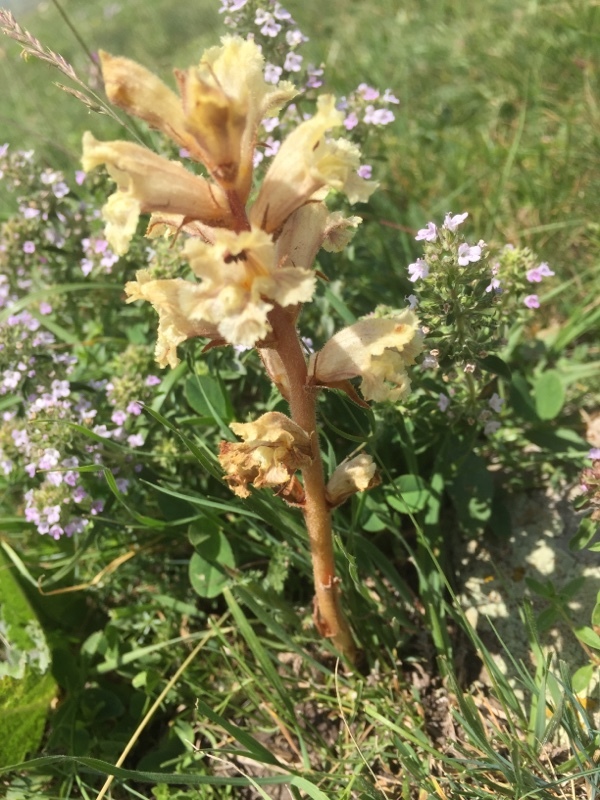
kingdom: Plantae
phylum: Tracheophyta
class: Magnoliopsida
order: Lamiales
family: Orobanchaceae
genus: Orobanche
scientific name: Orobanche alba
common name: Thyme broomrape
